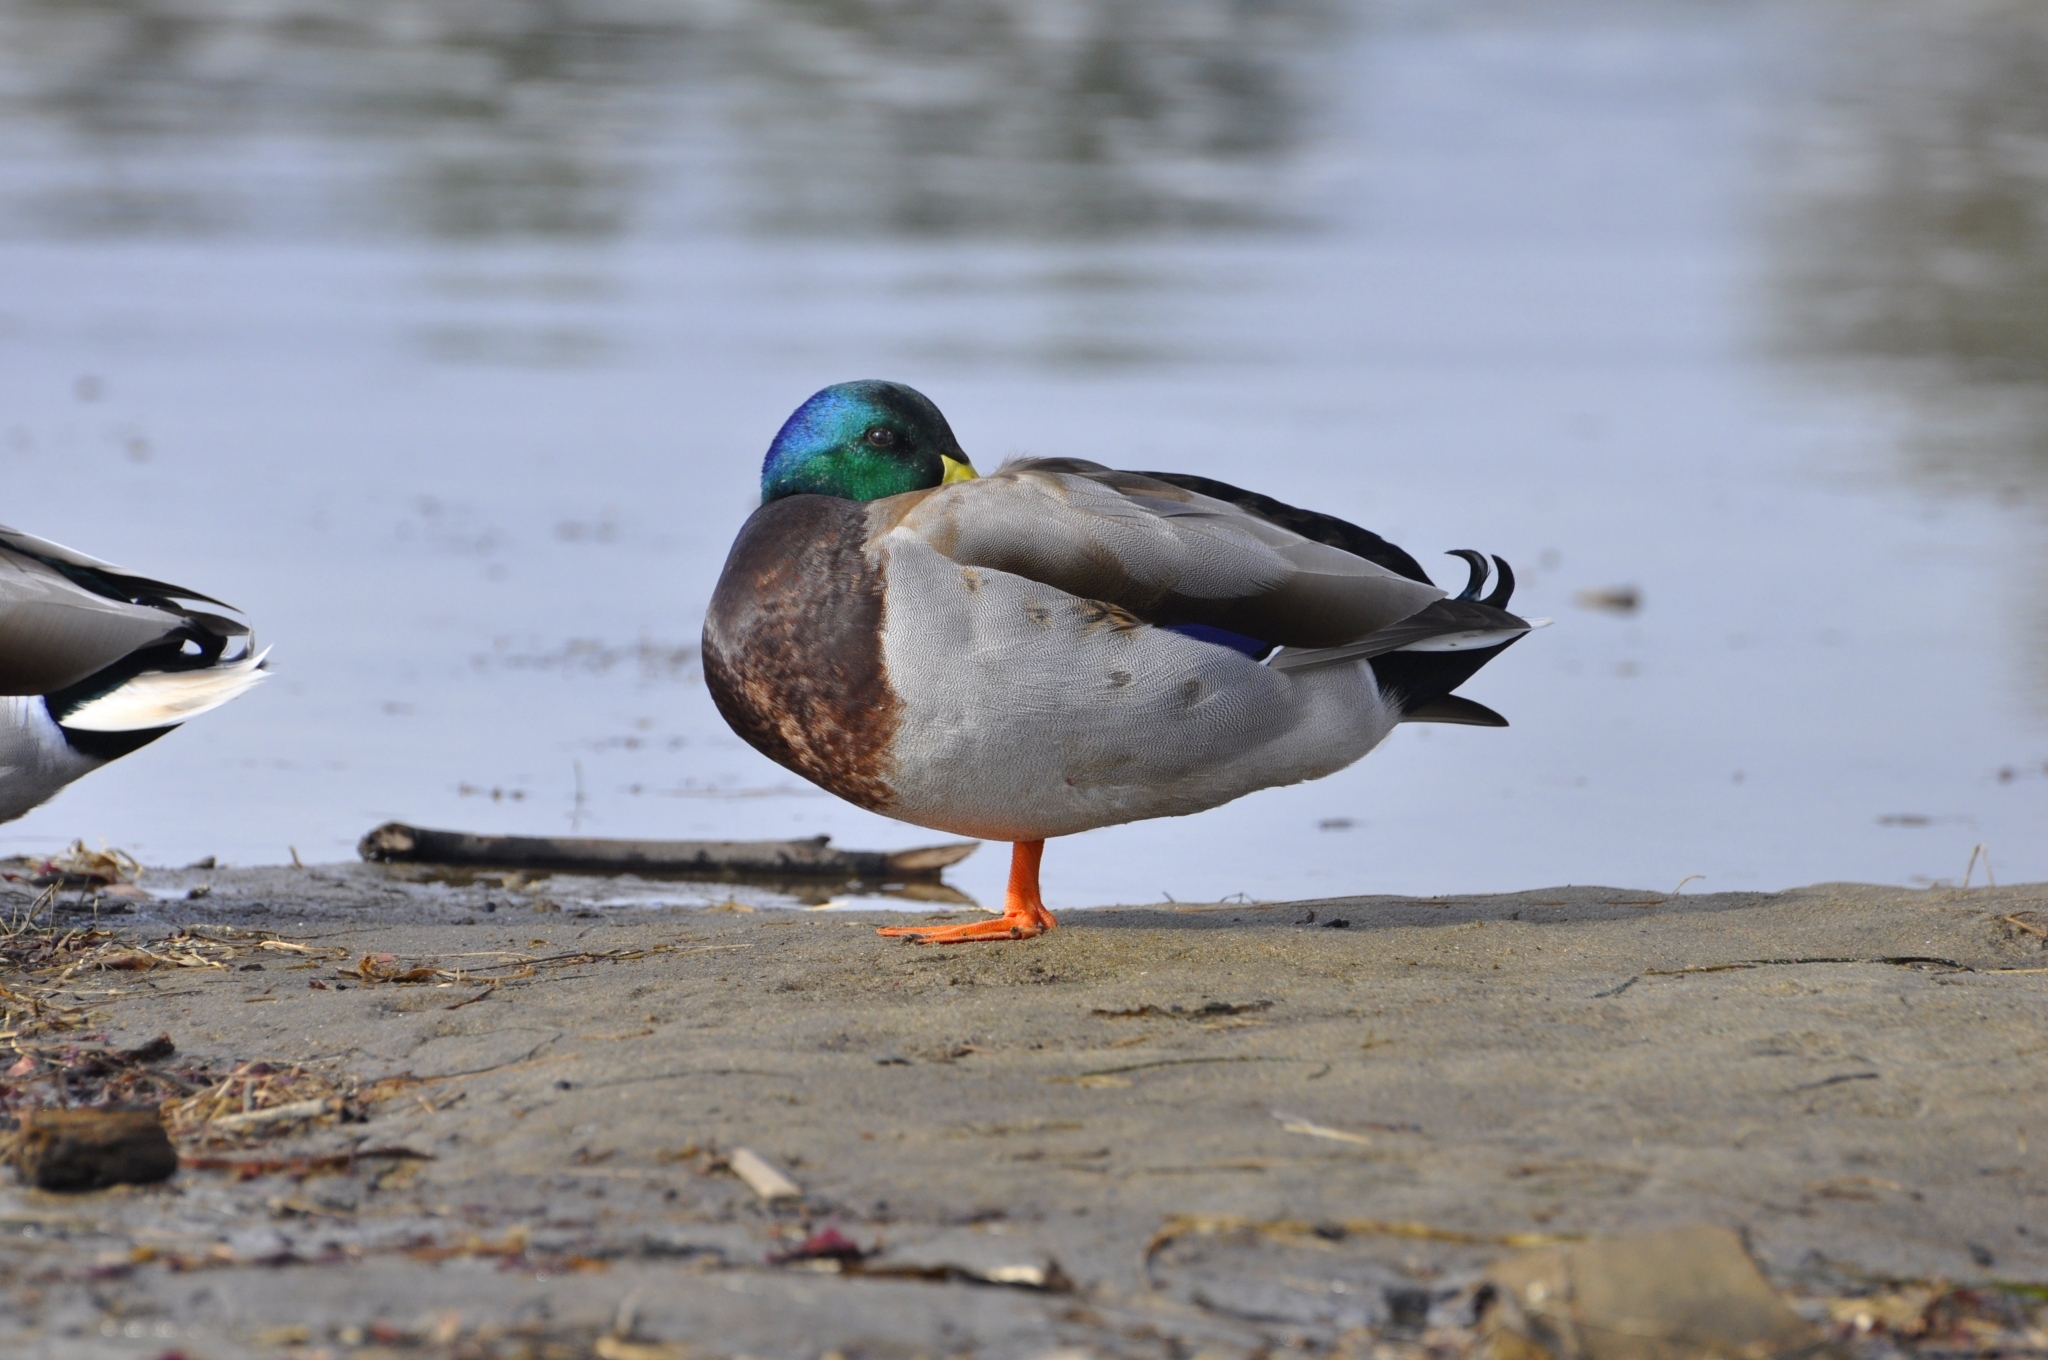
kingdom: Animalia
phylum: Chordata
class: Aves
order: Anseriformes
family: Anatidae
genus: Anas
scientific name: Anas platyrhynchos
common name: Mallard
